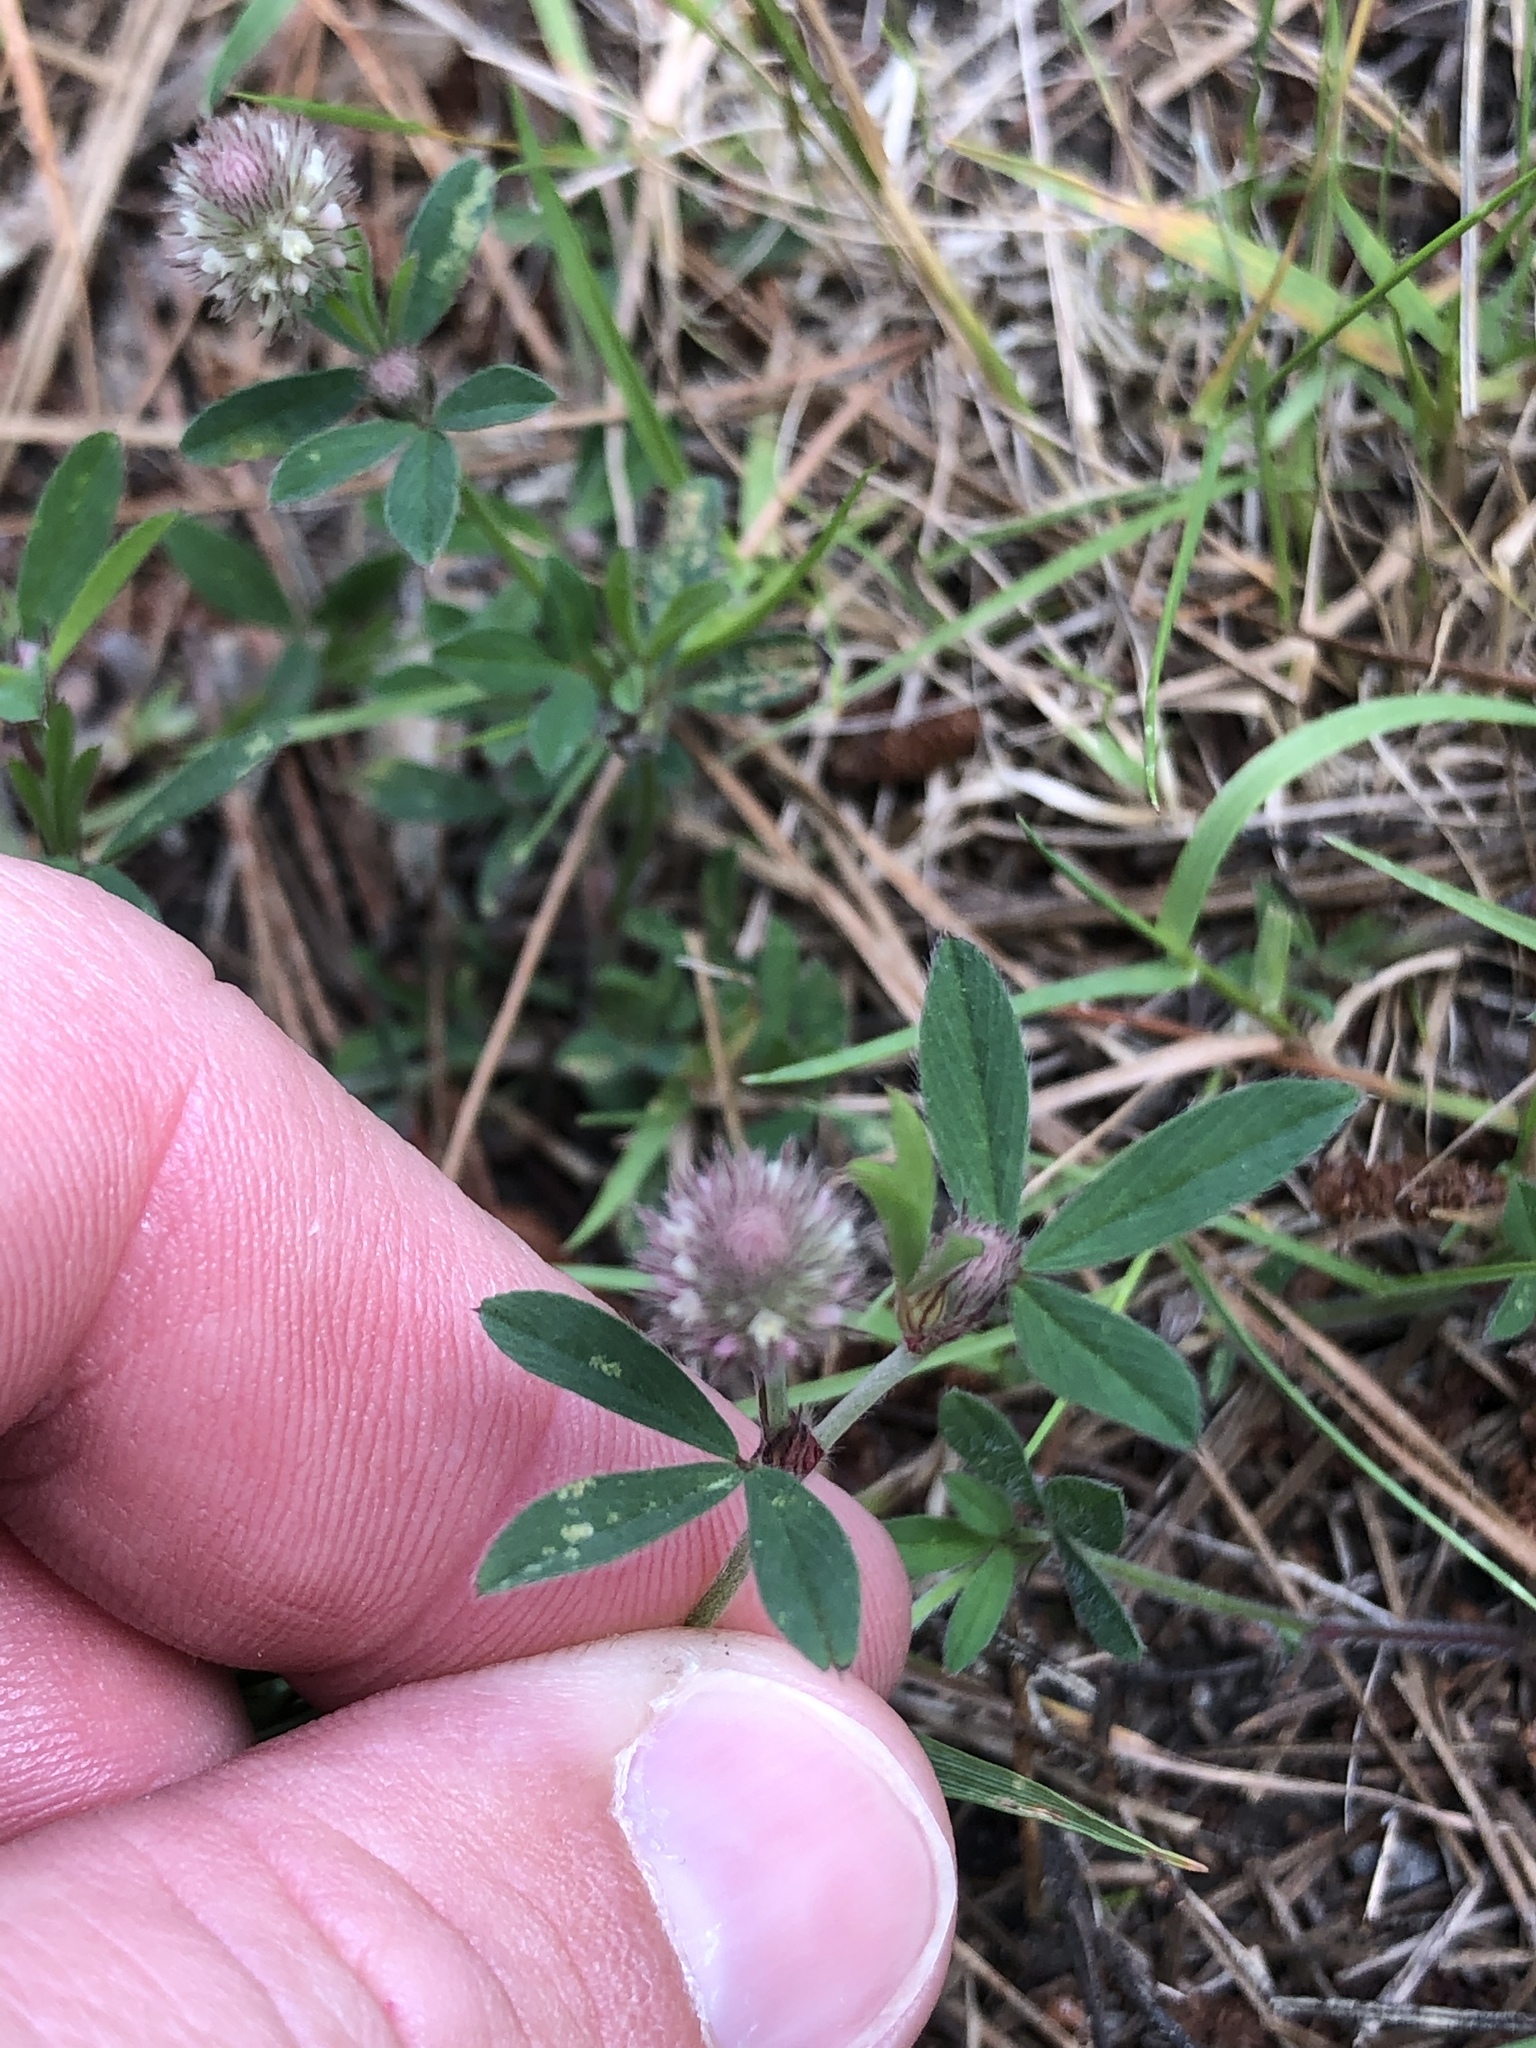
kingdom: Plantae
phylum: Tracheophyta
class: Magnoliopsida
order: Fabales
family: Fabaceae
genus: Trifolium
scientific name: Trifolium arvense
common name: Hare's-foot clover
